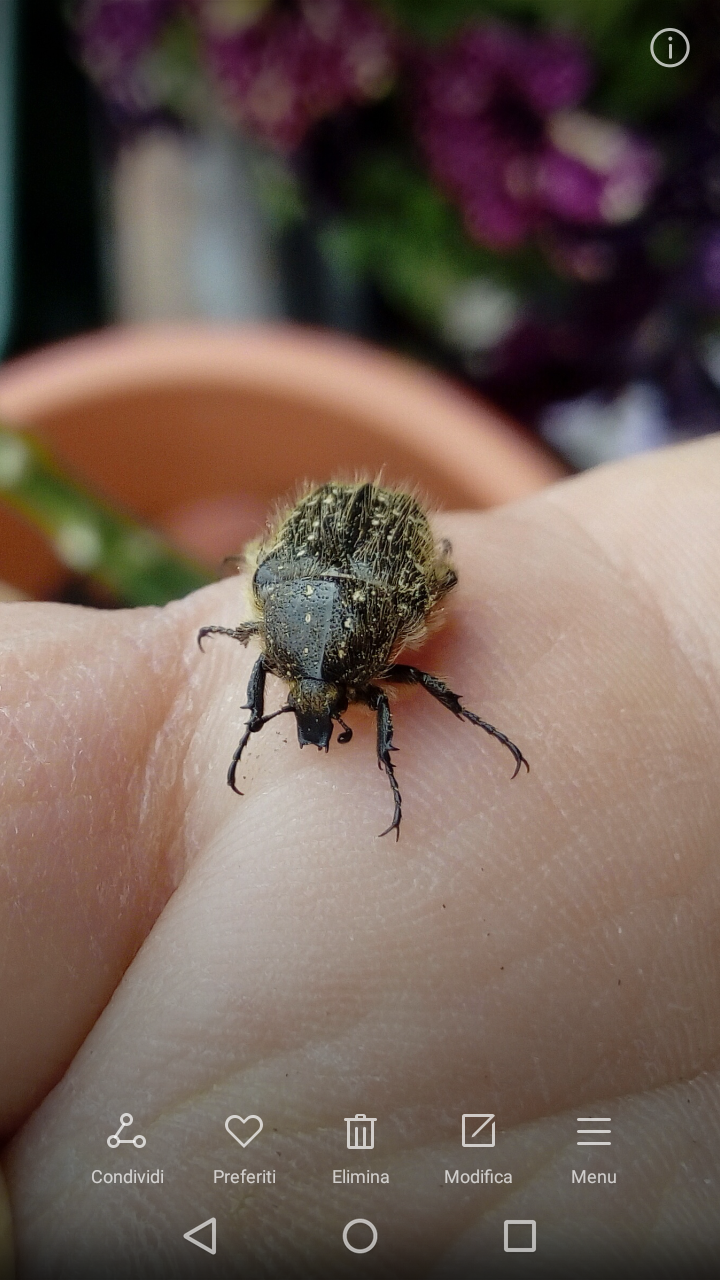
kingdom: Animalia
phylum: Arthropoda
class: Insecta
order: Coleoptera
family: Scarabaeidae
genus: Oxythyrea
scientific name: Oxythyrea funesta
